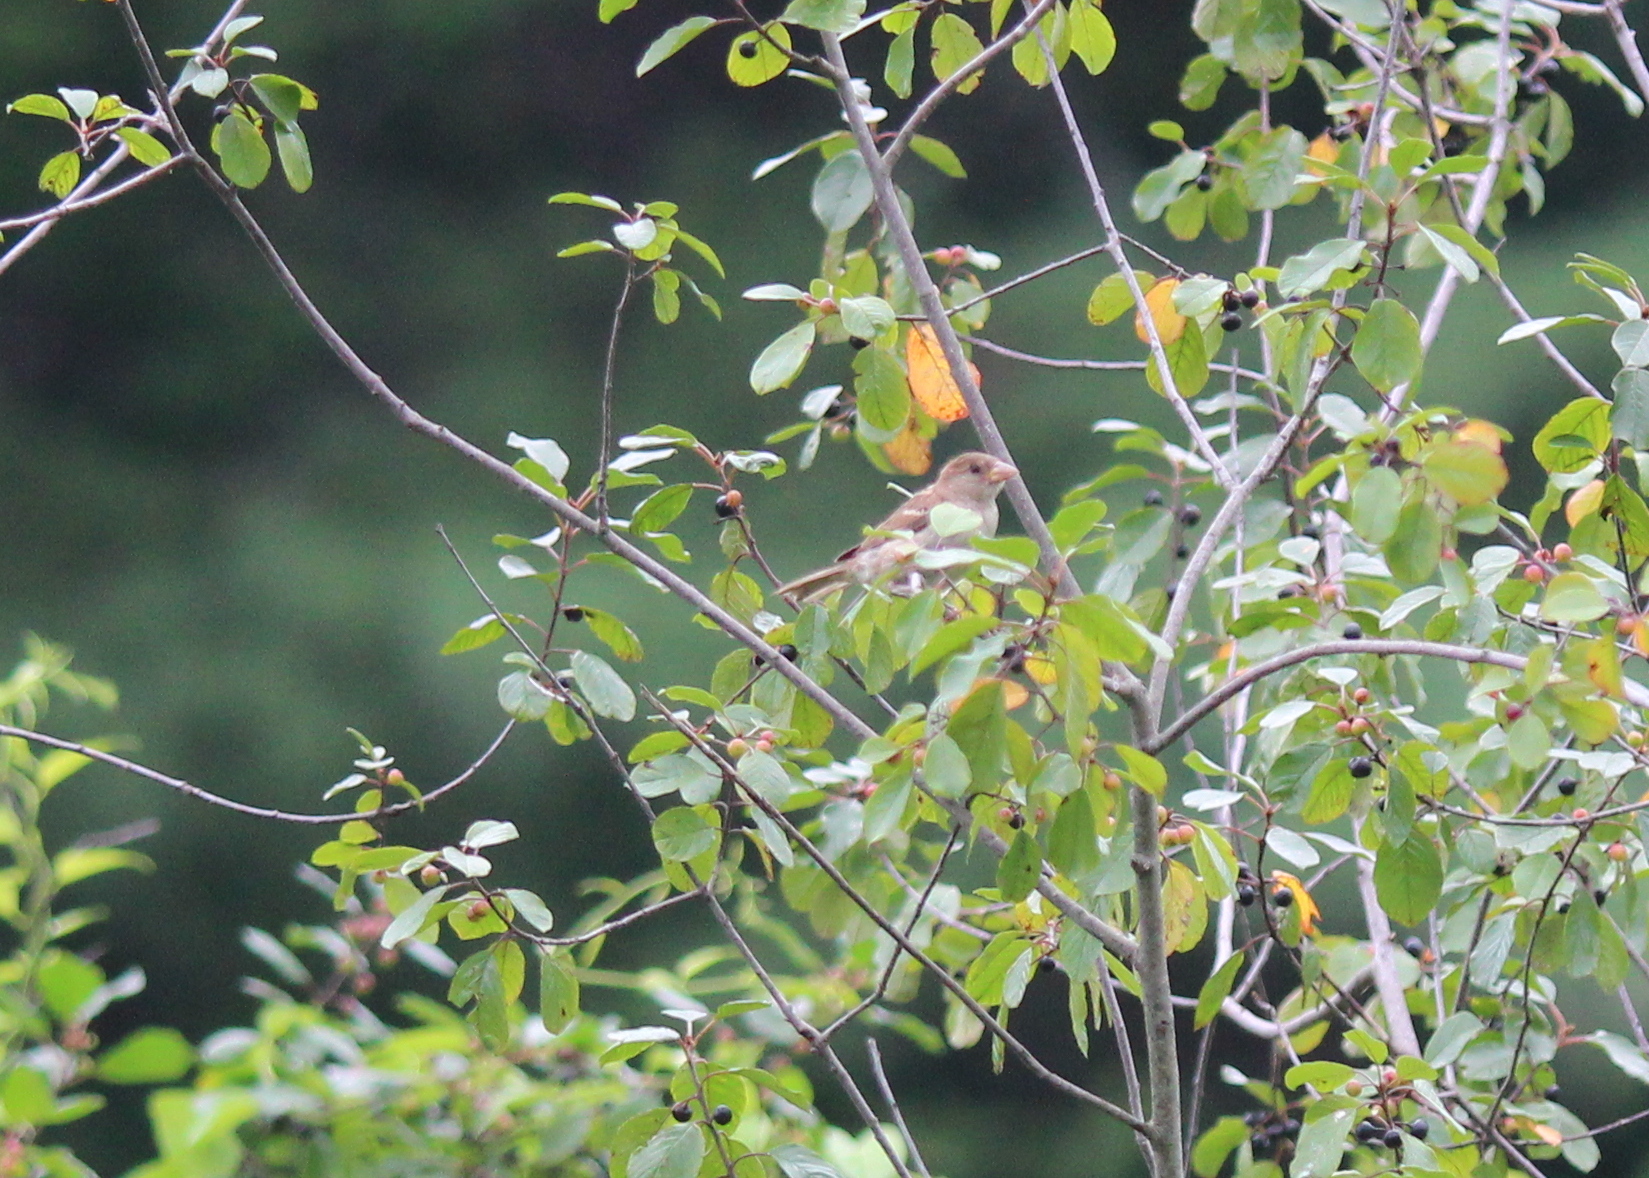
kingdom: Animalia
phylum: Chordata
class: Aves
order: Passeriformes
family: Passeridae
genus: Passer
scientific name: Passer domesticus
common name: House sparrow
